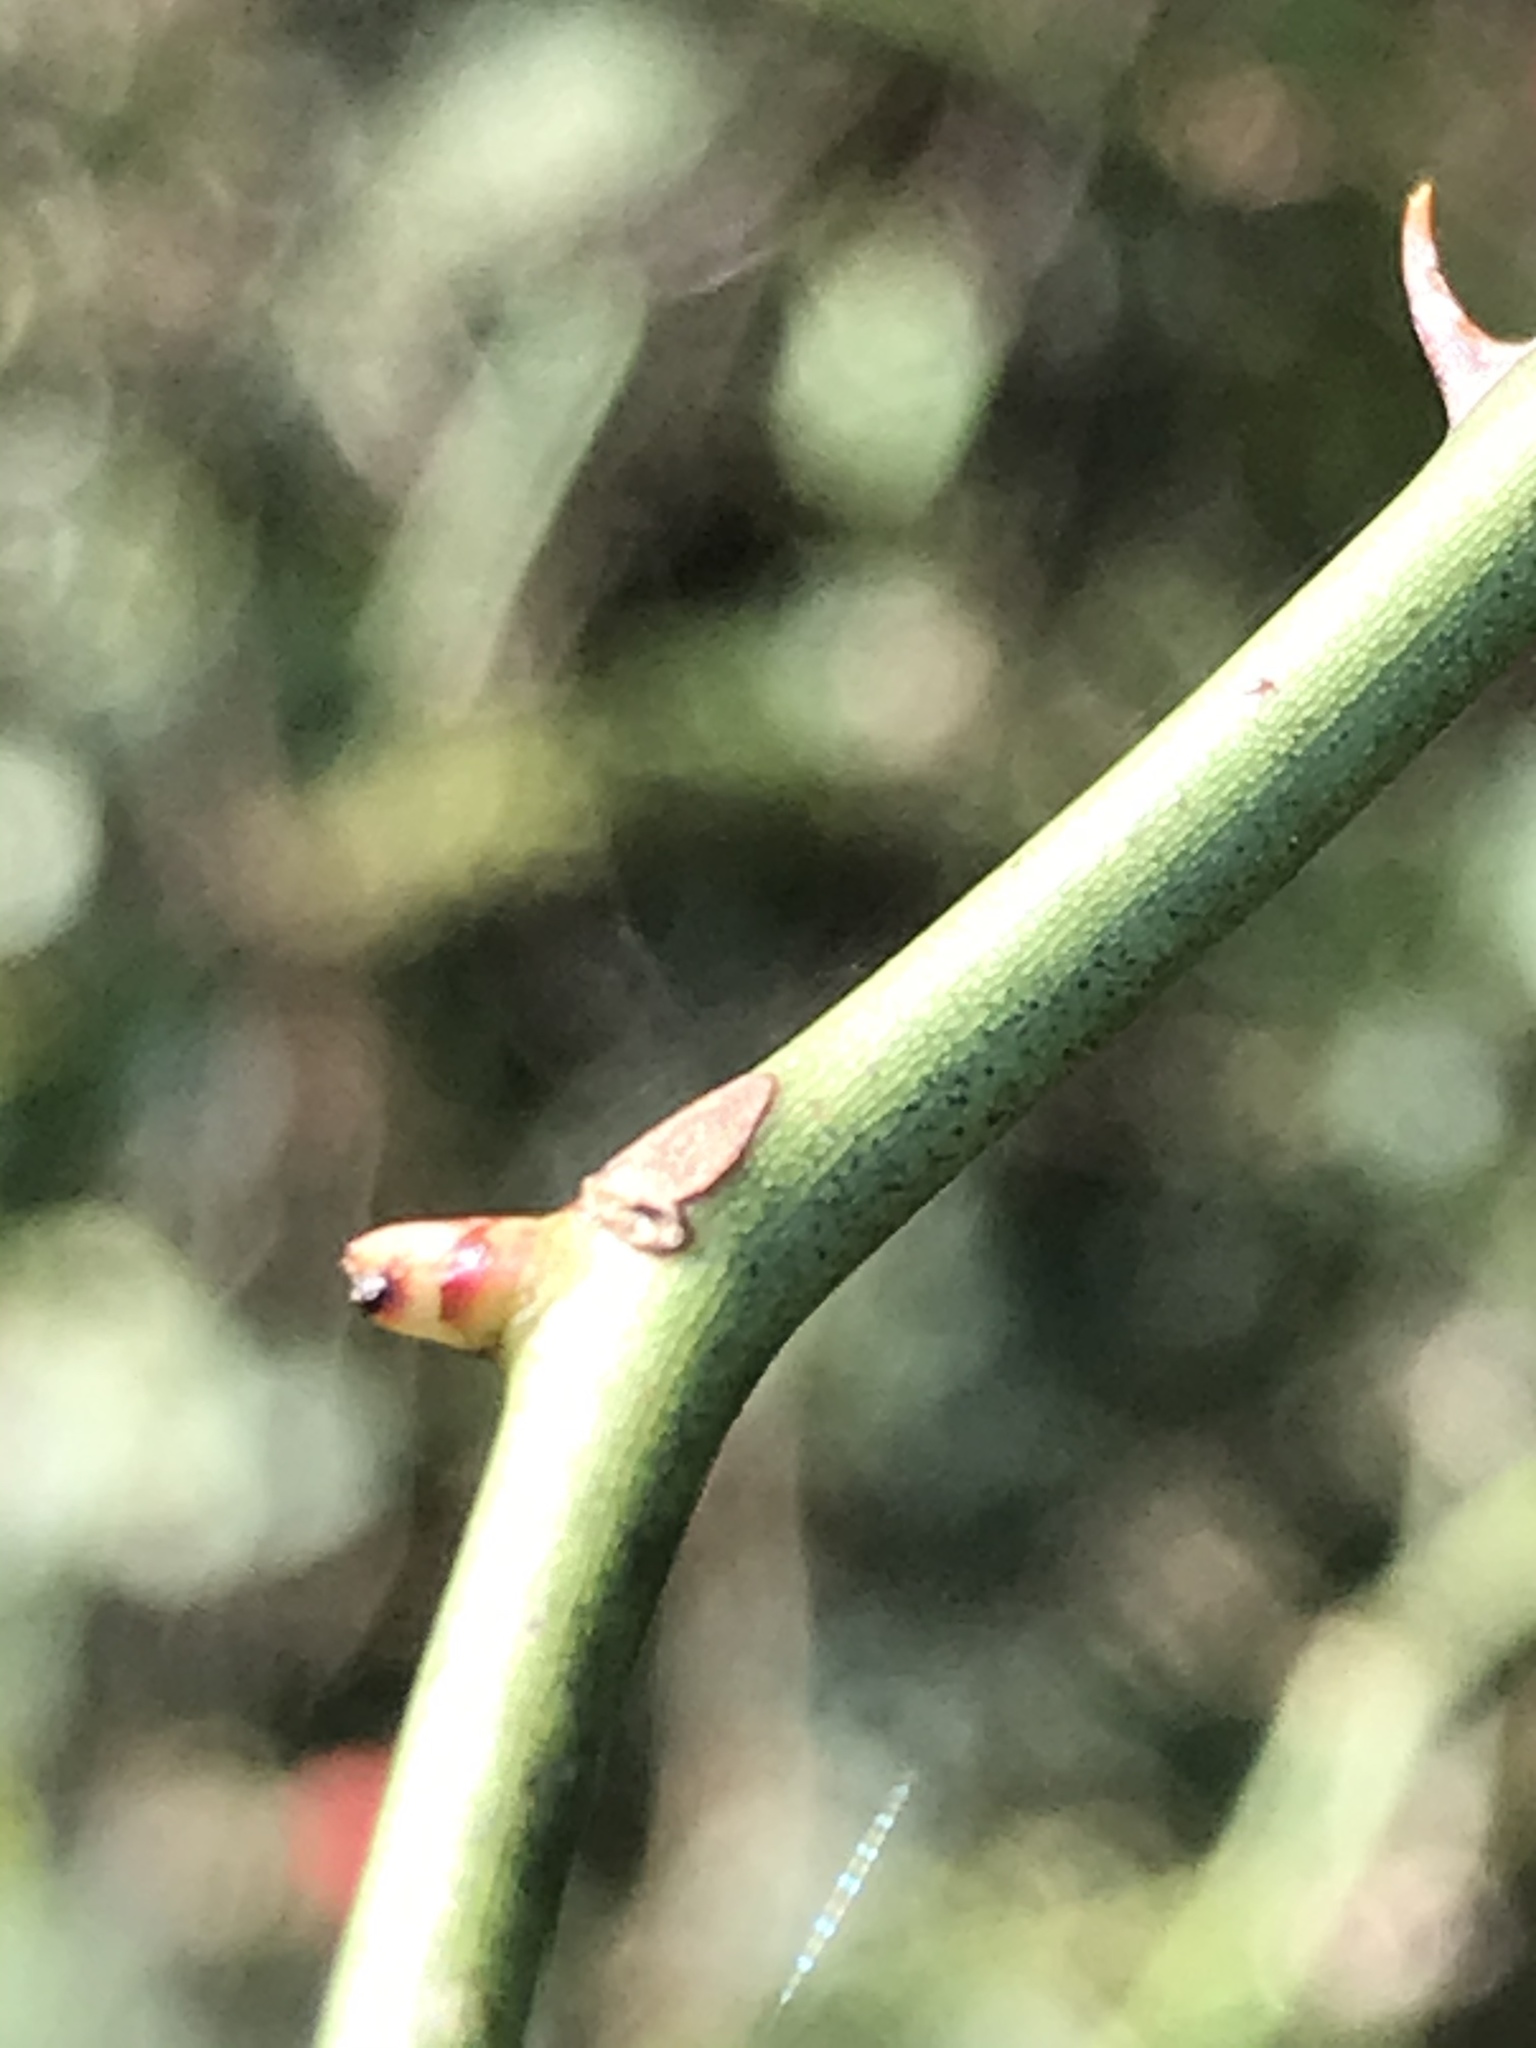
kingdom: Plantae
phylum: Tracheophyta
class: Magnoliopsida
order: Rosales
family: Rosaceae
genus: Rosa
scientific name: Rosa multiflora
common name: Multiflora rose
